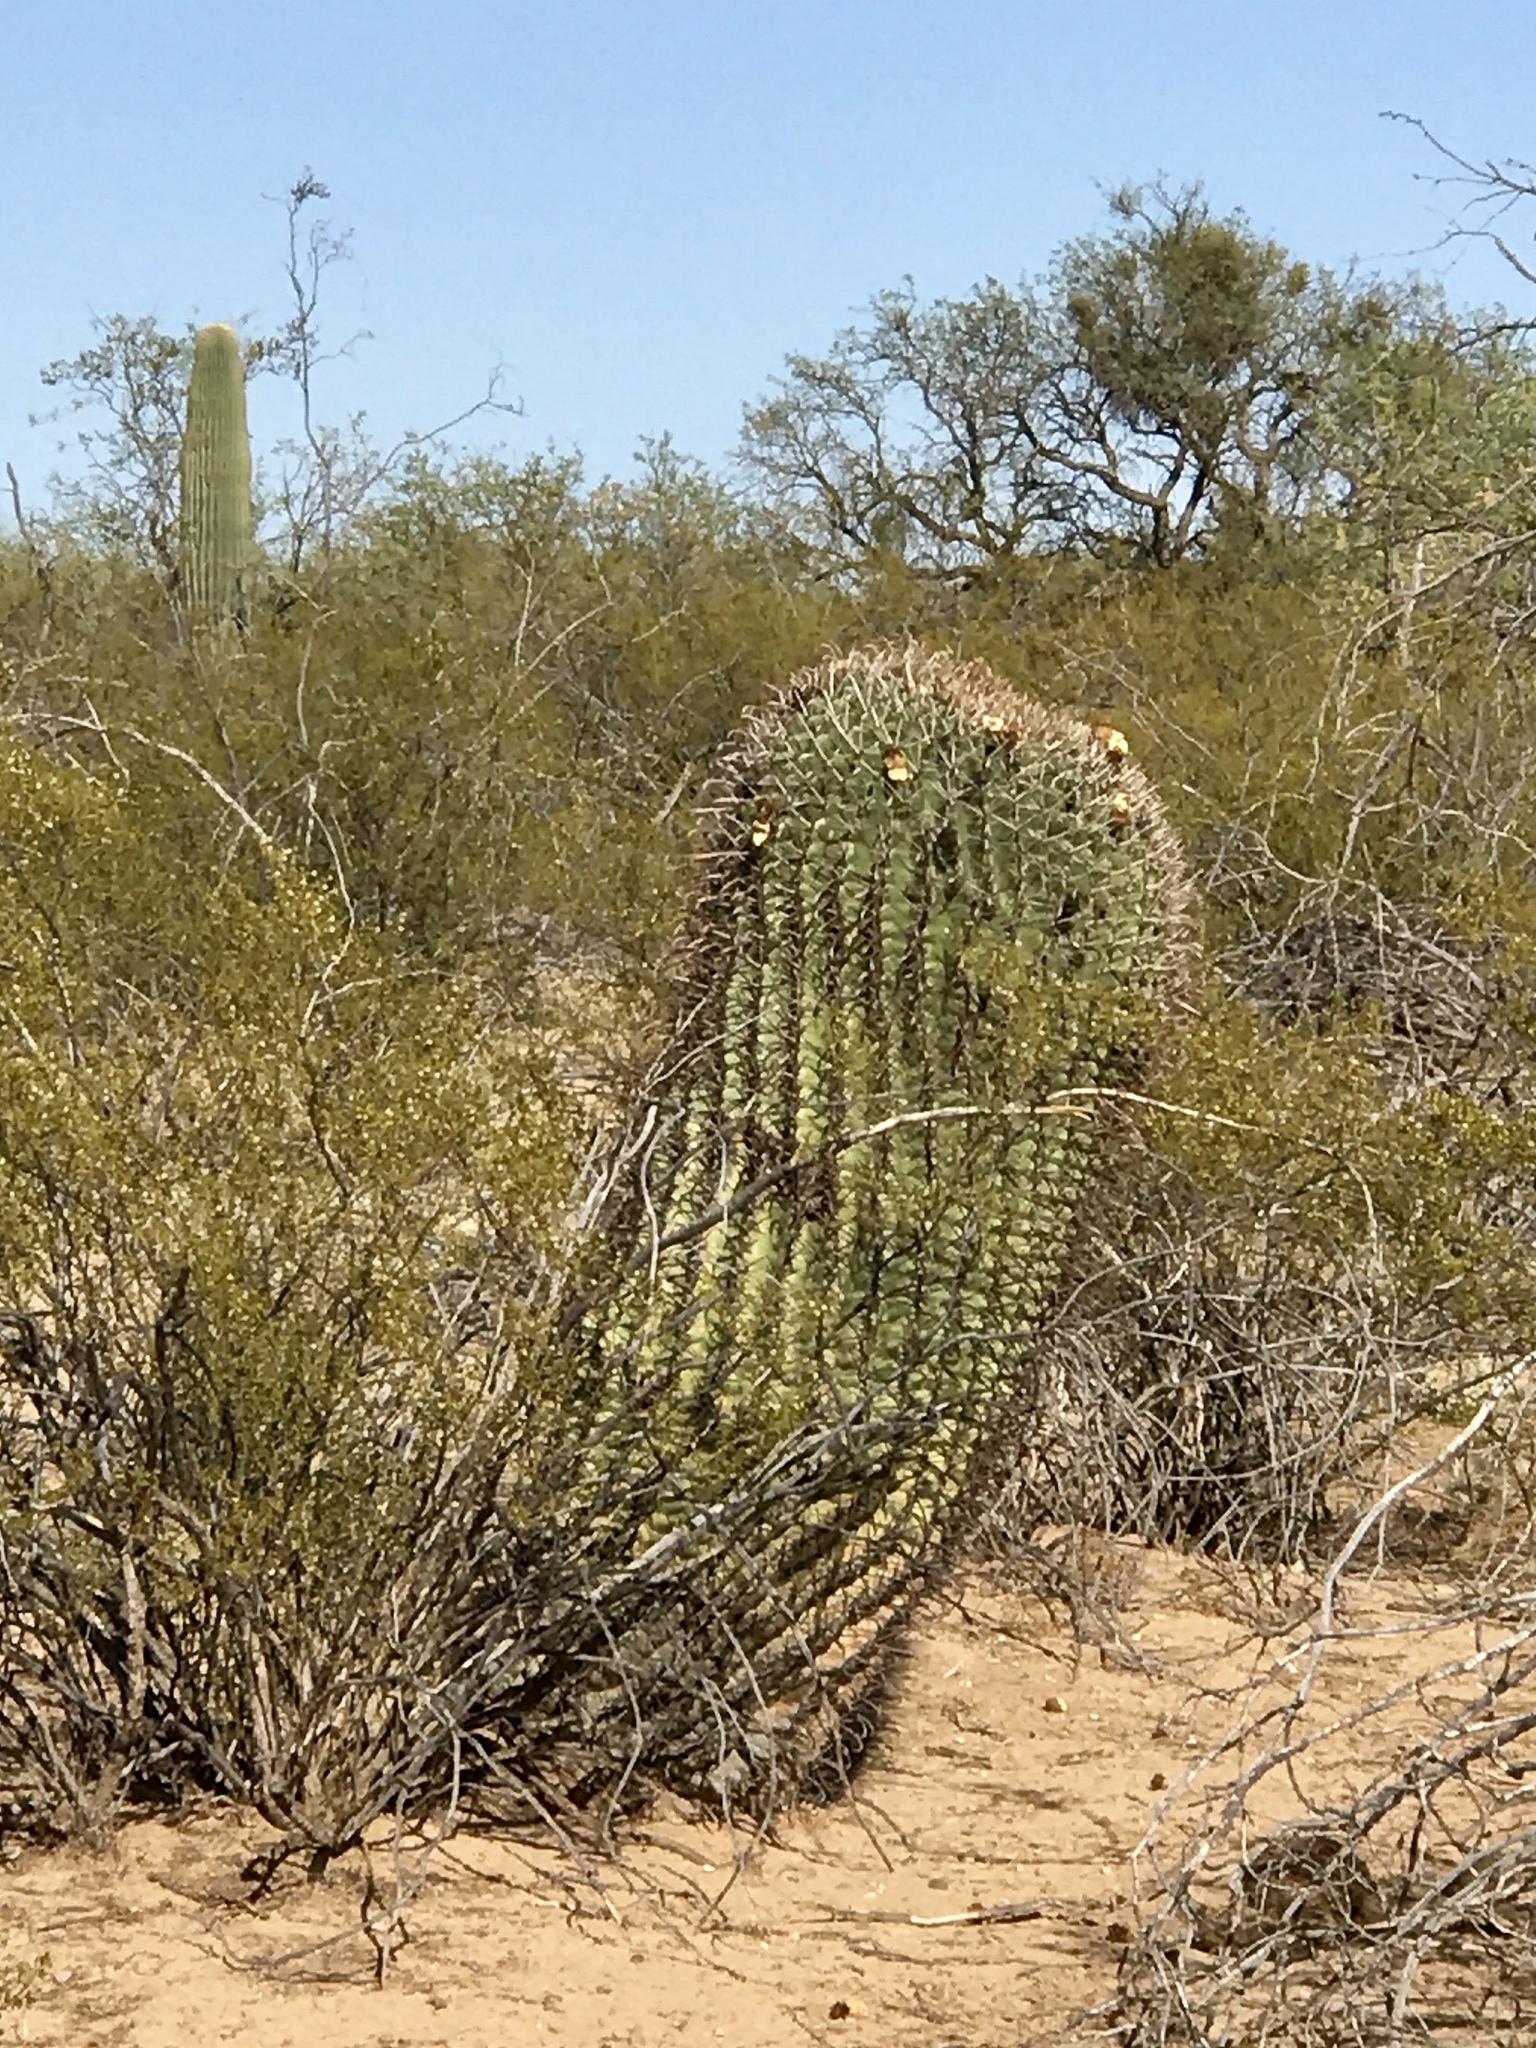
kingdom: Plantae
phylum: Tracheophyta
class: Magnoliopsida
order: Caryophyllales
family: Cactaceae
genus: Ferocactus
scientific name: Ferocactus wislizeni
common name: Candy barrel cactus
